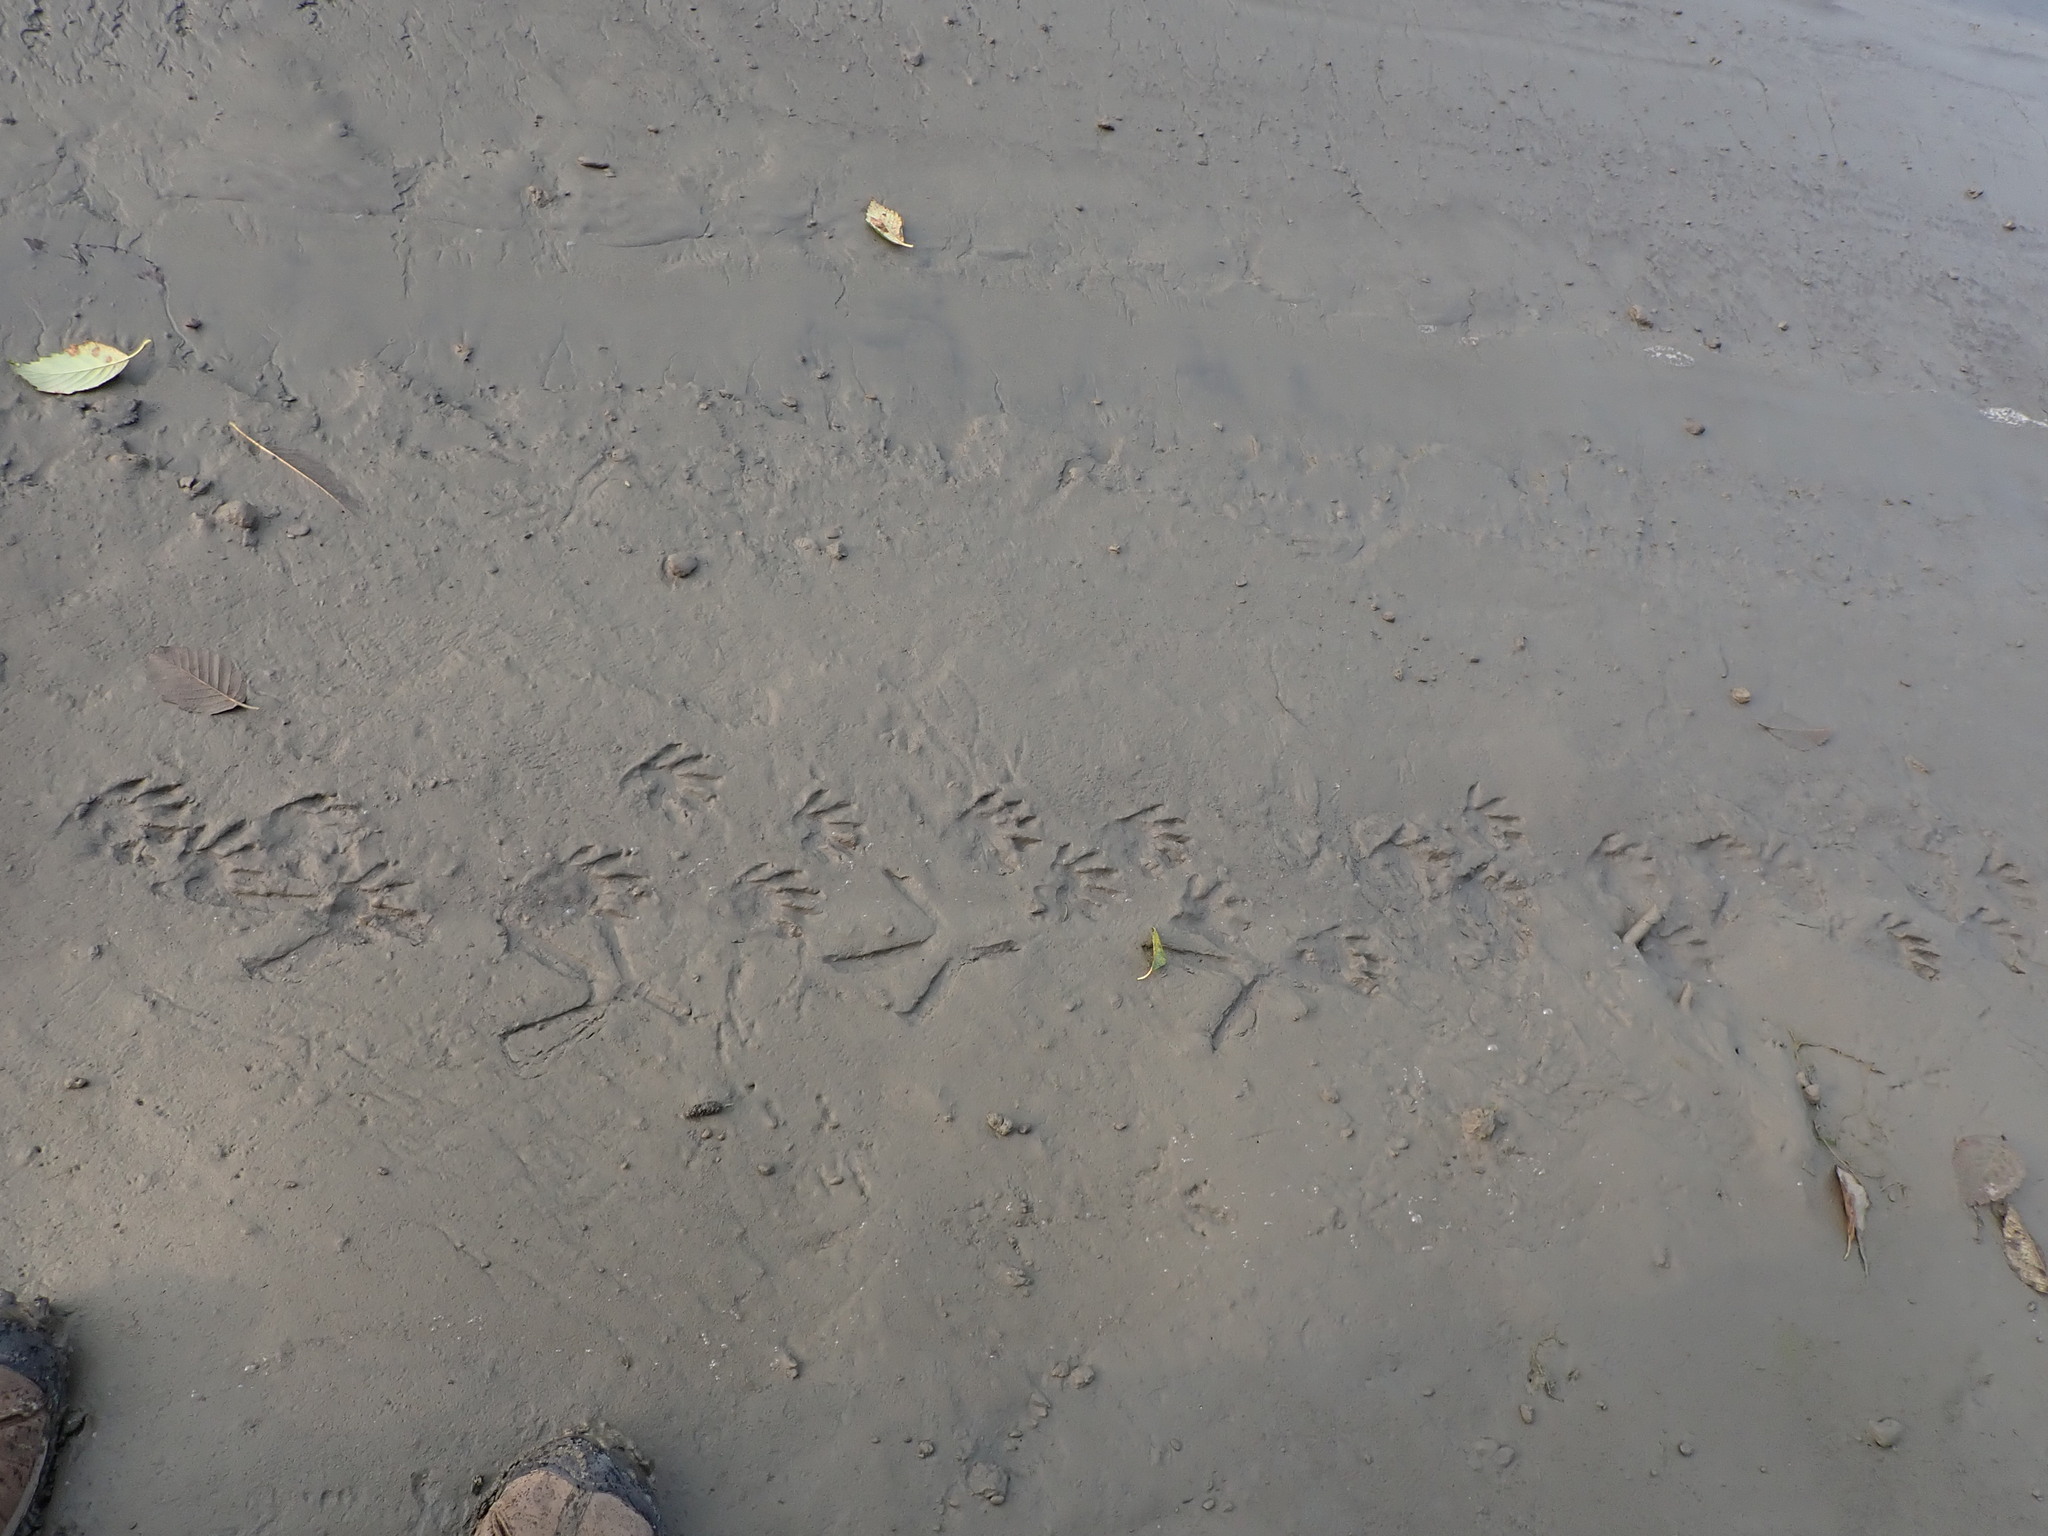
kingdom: Animalia
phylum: Chordata
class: Mammalia
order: Carnivora
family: Procyonidae
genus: Procyon
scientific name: Procyon lotor
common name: Raccoon
